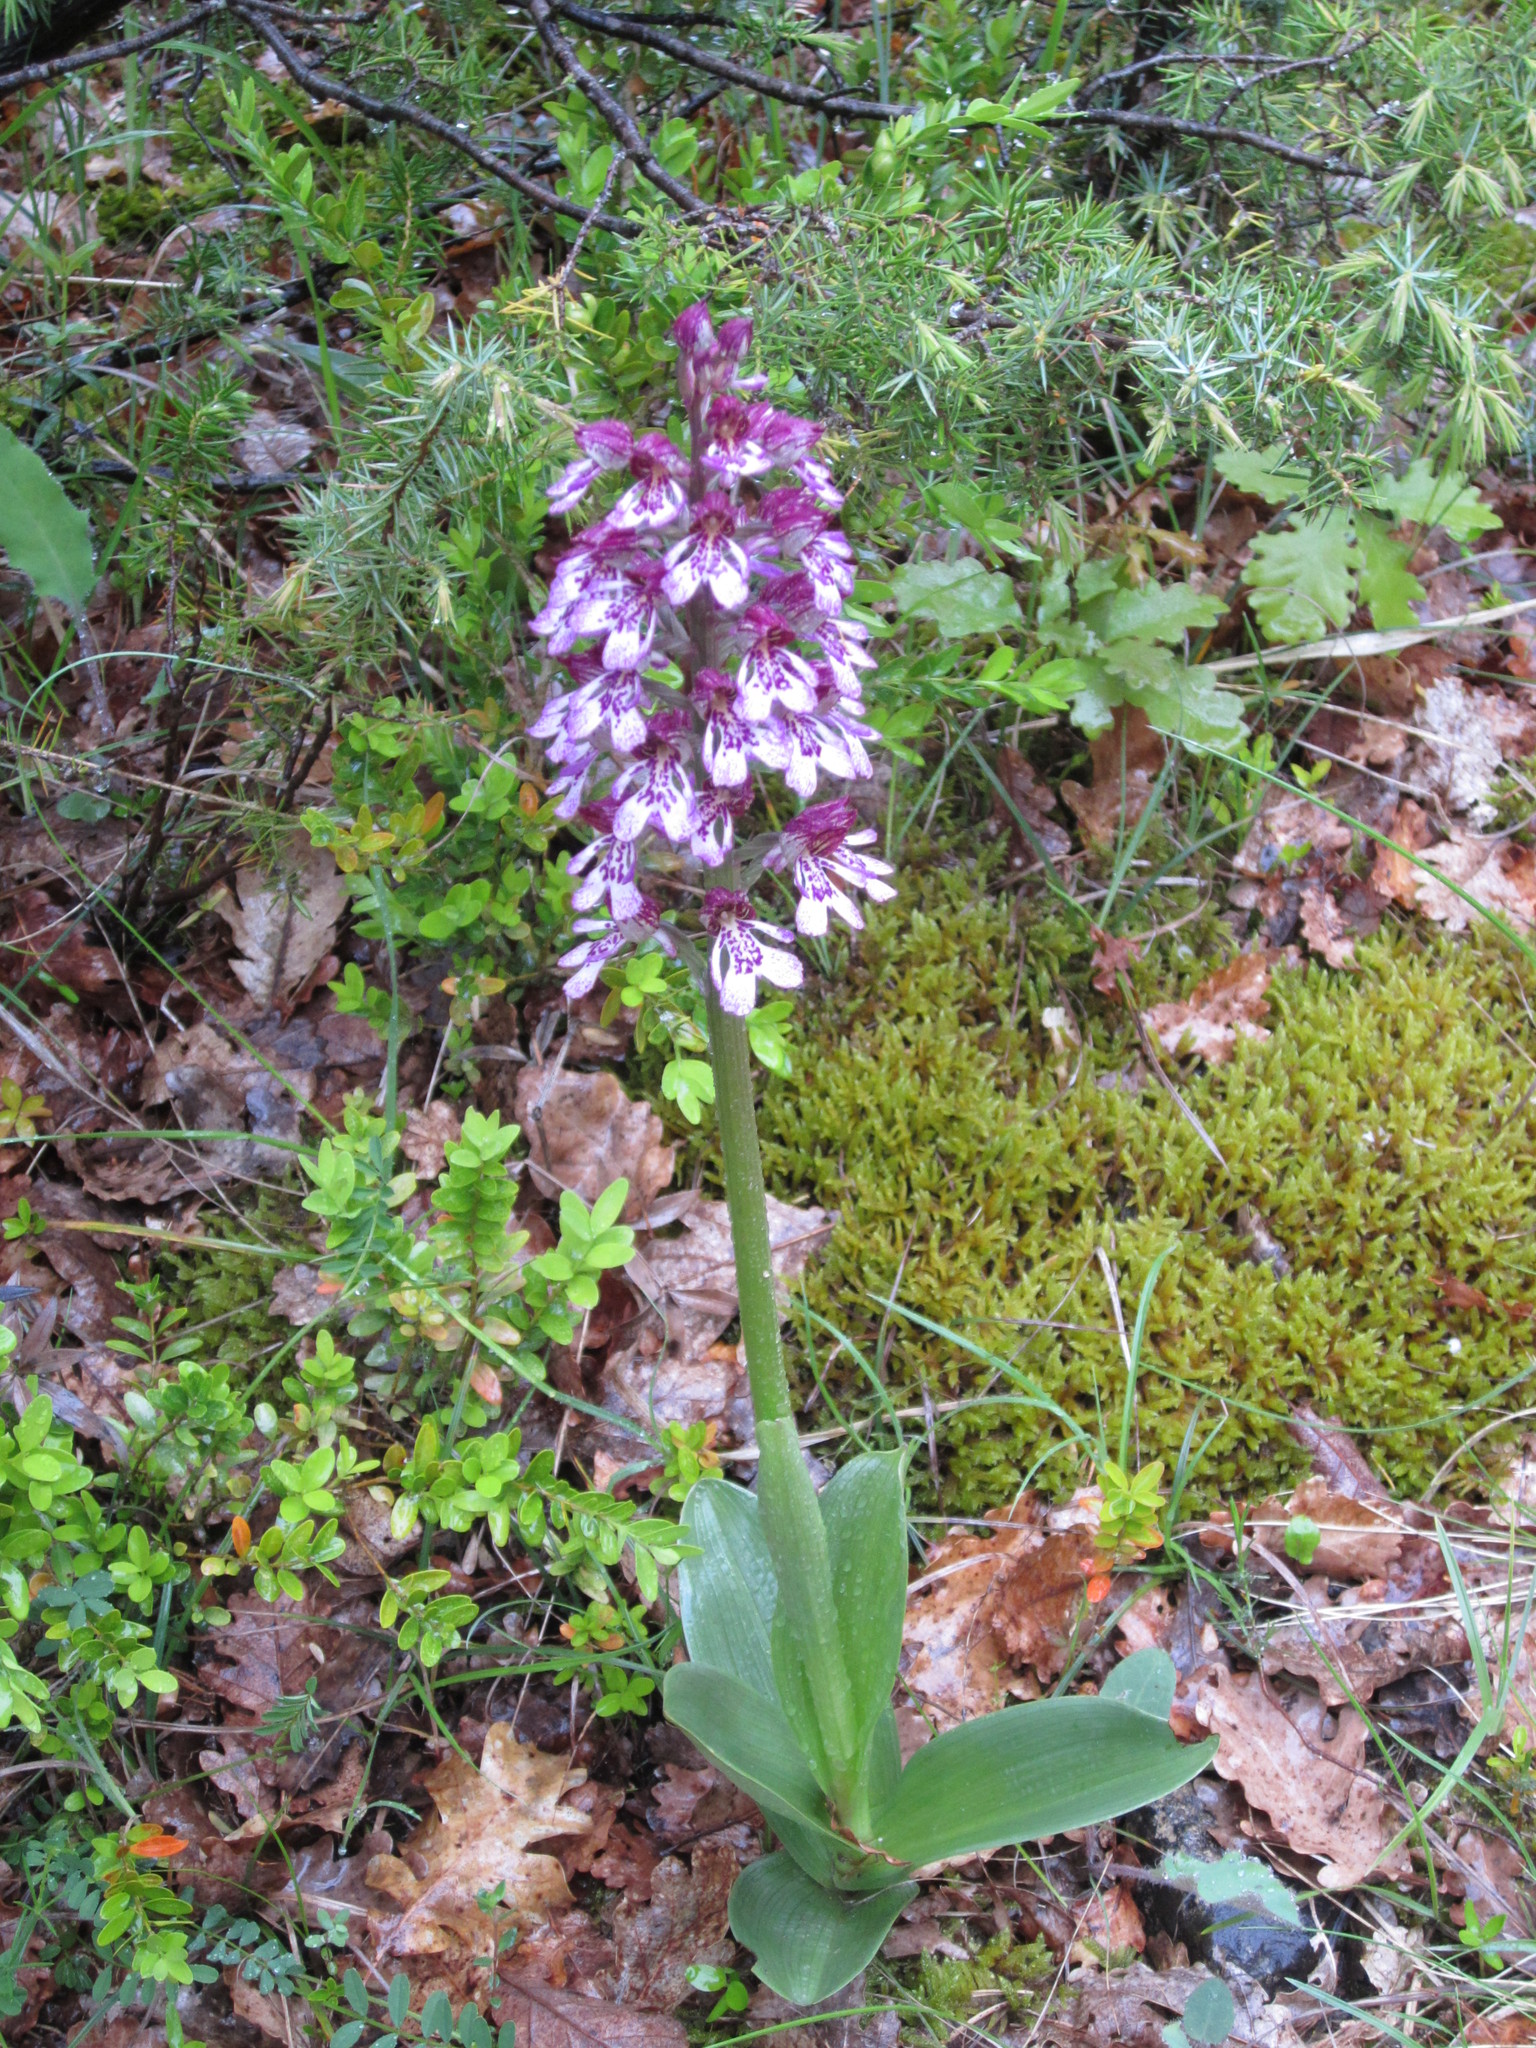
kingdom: Plantae
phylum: Tracheophyta
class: Liliopsida
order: Asparagales
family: Orchidaceae
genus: Orchis
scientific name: Orchis hybrida
